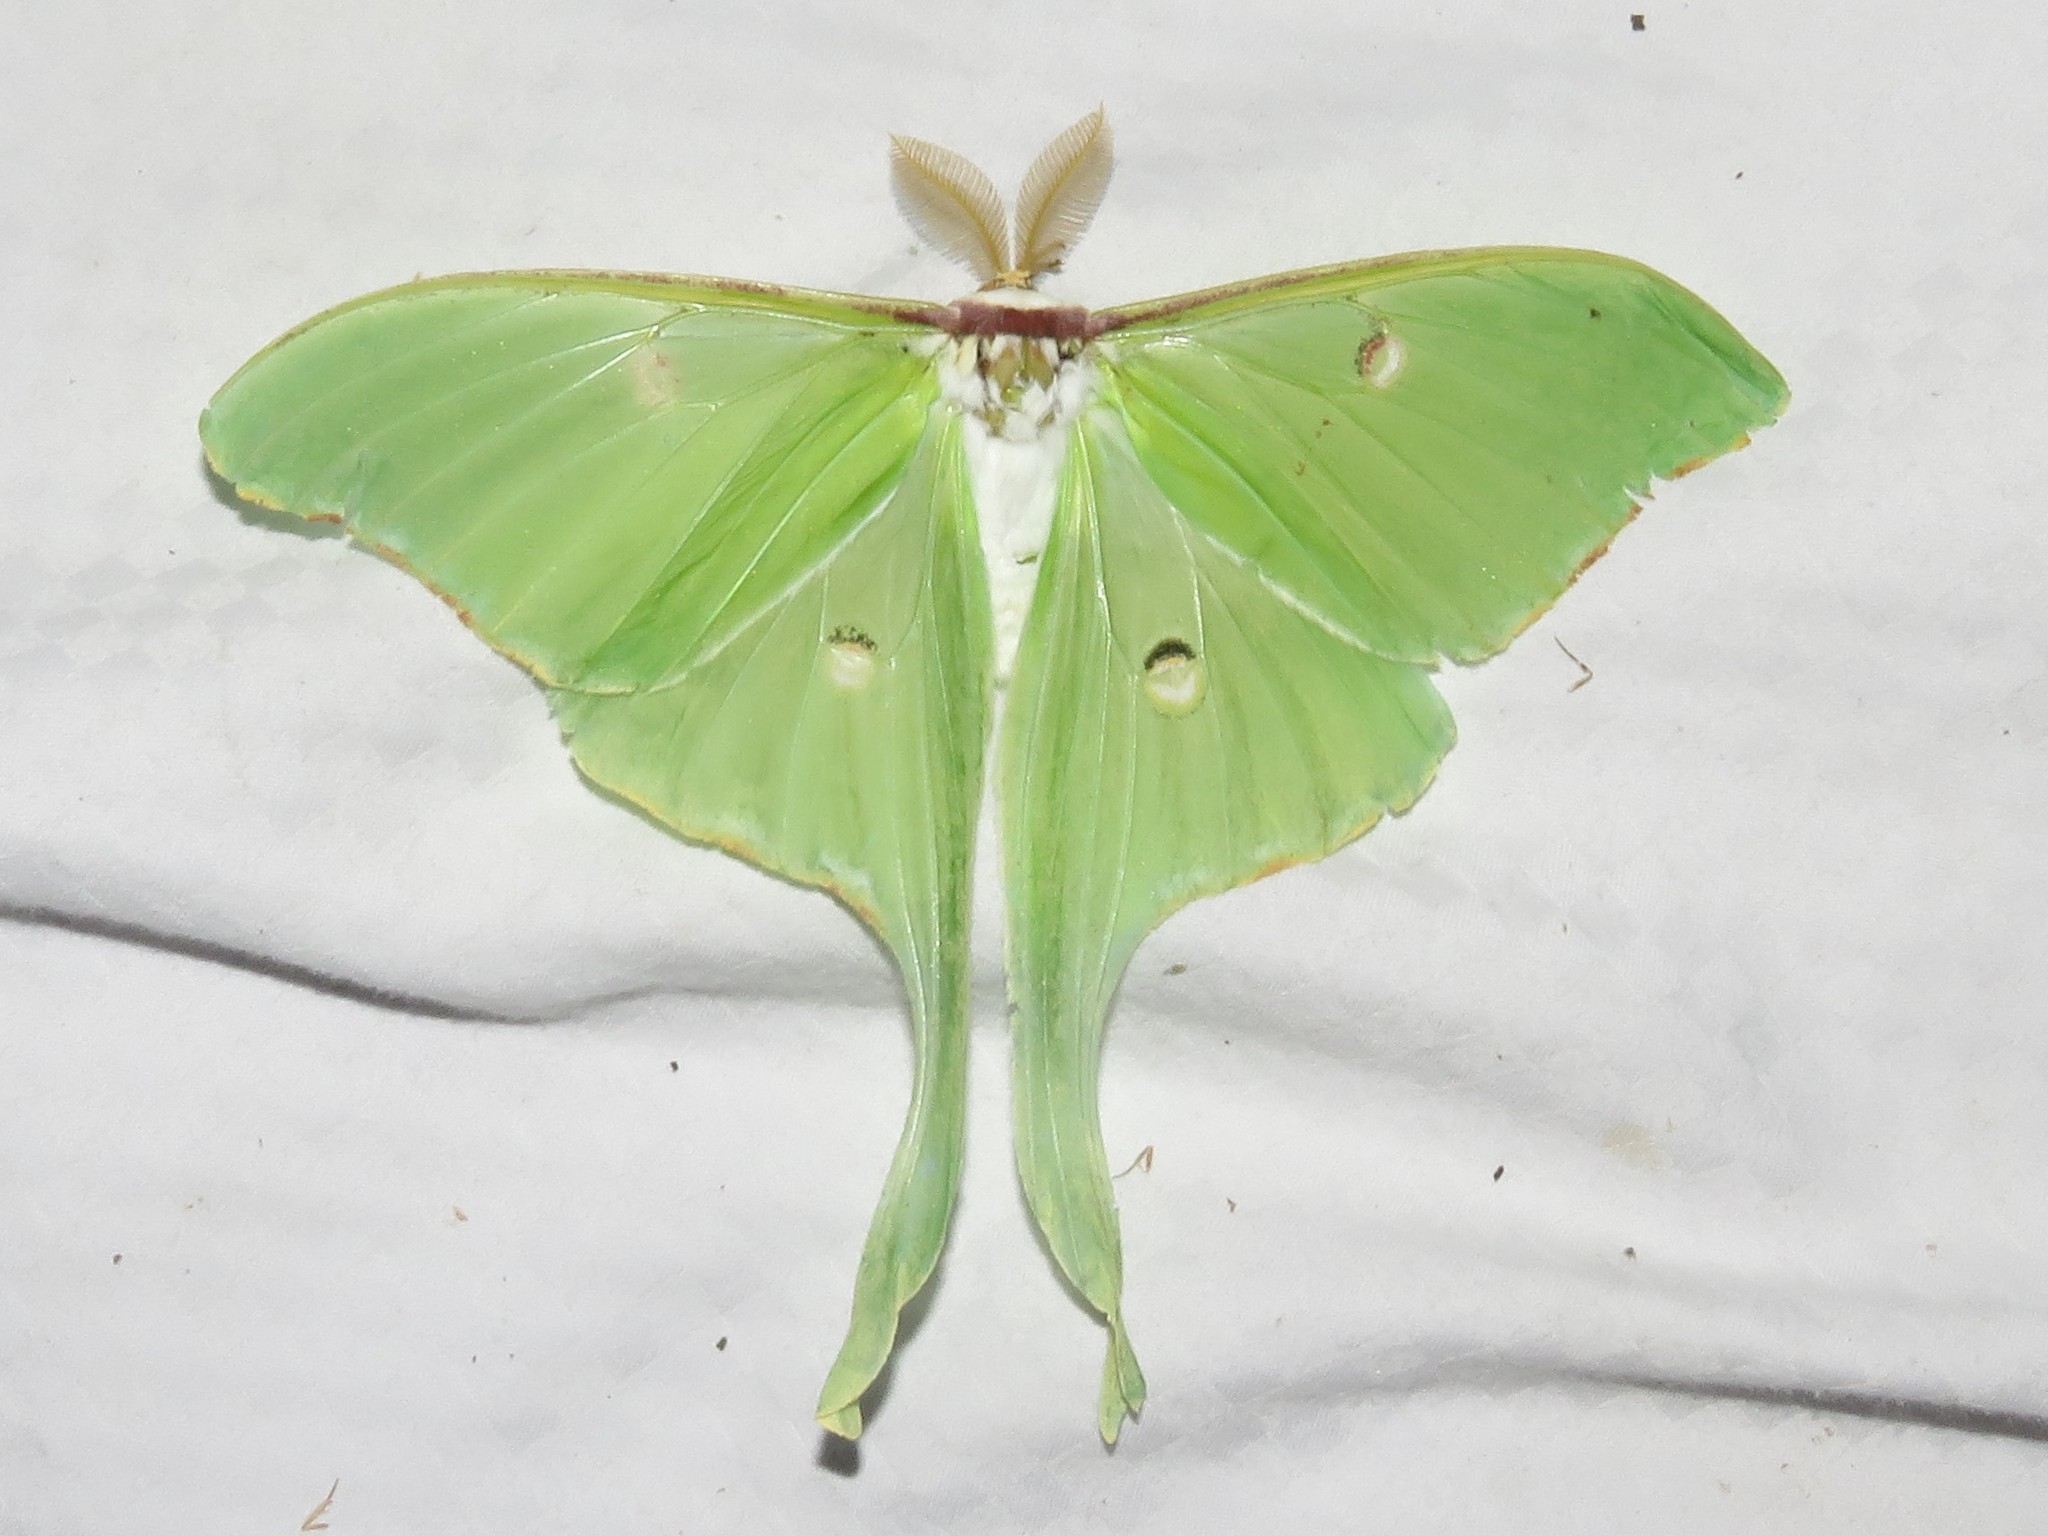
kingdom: Animalia
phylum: Arthropoda
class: Insecta
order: Lepidoptera
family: Saturniidae
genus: Actias
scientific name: Actias luna
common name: Luna moth
